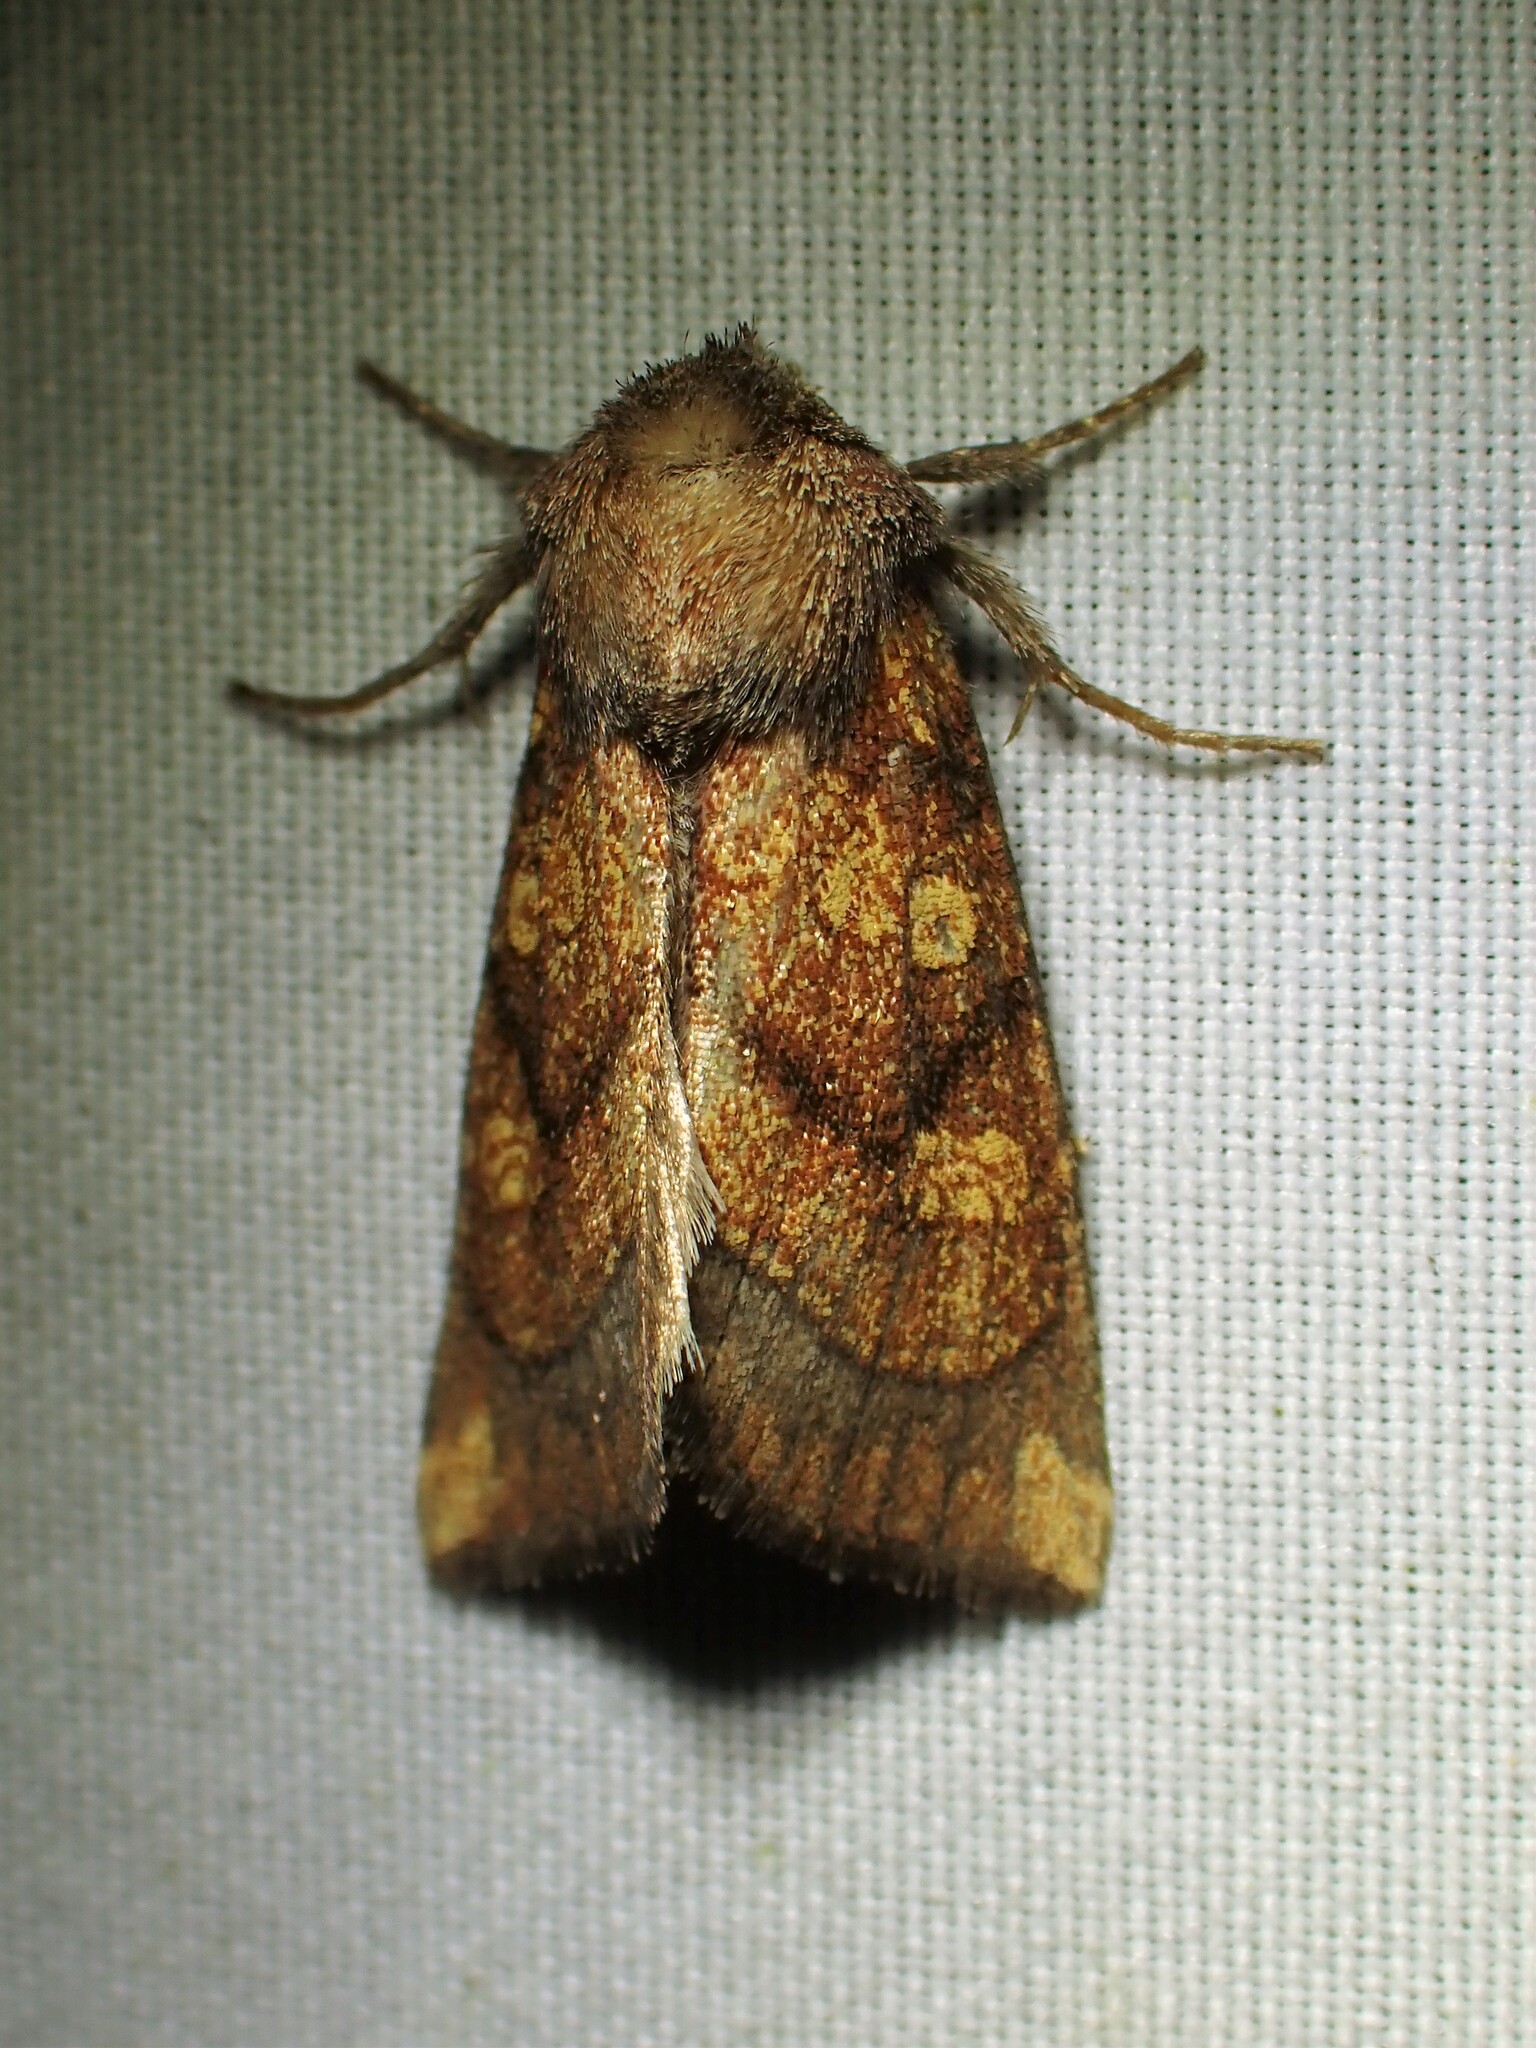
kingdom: Animalia
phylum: Arthropoda
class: Insecta
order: Lepidoptera
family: Noctuidae
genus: Papaipema
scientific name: Papaipema impecuniosa
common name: Aster borer moth
